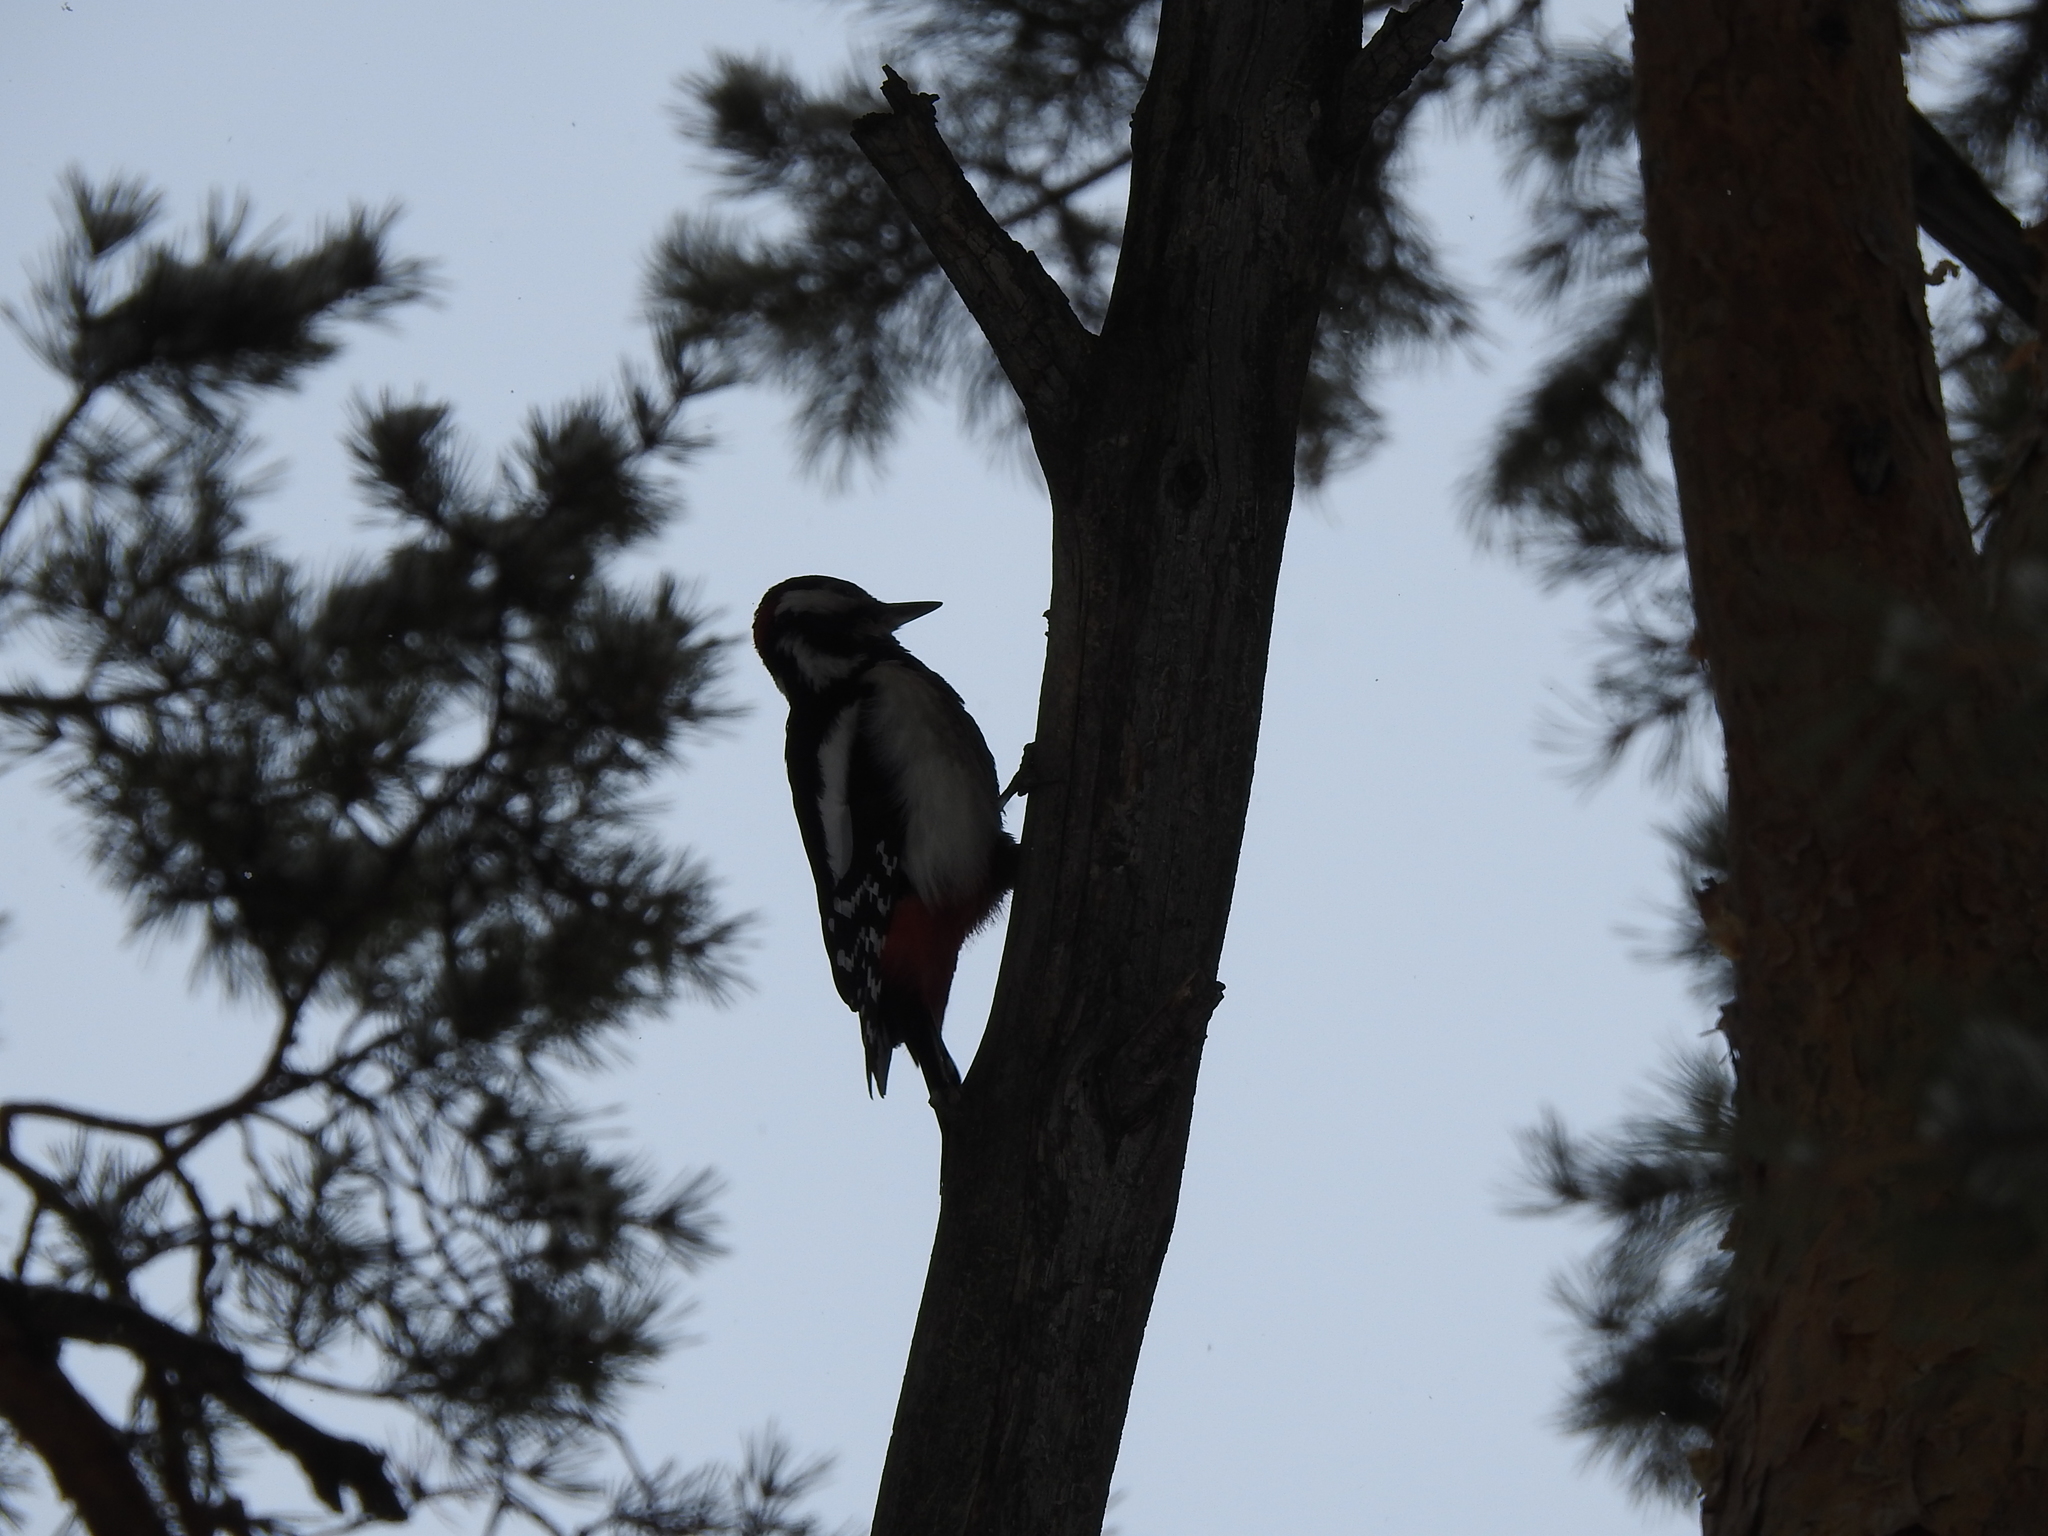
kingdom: Animalia
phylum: Chordata
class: Aves
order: Piciformes
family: Picidae
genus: Dendrocopos
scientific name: Dendrocopos major
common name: Great spotted woodpecker
